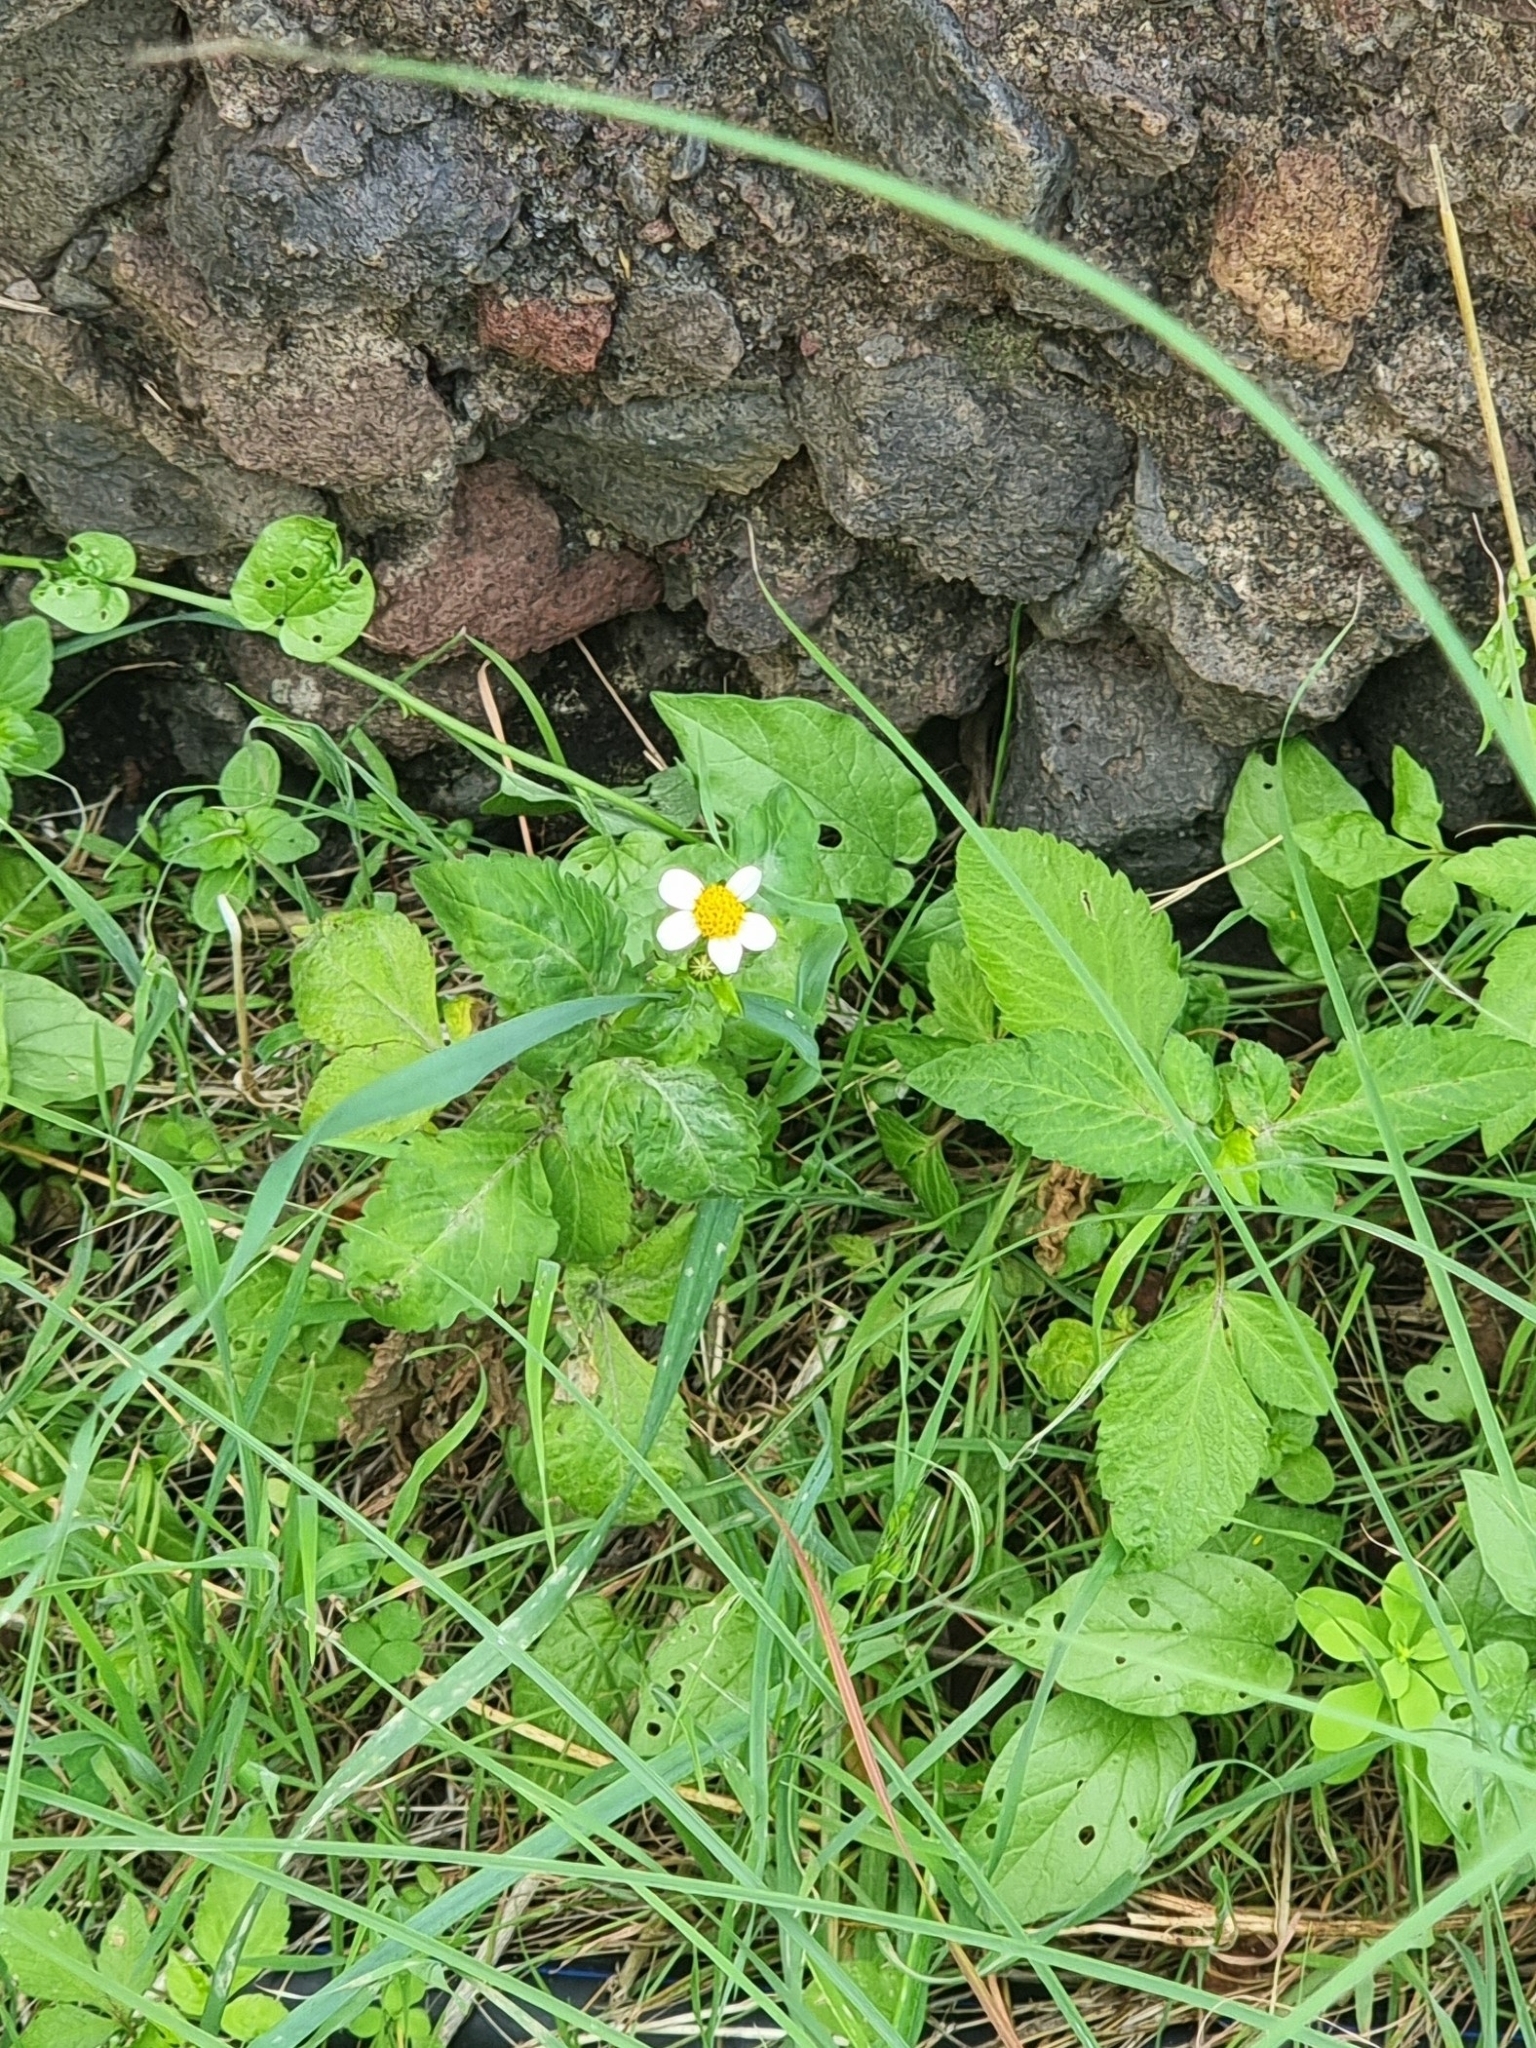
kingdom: Plantae
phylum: Tracheophyta
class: Magnoliopsida
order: Asterales
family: Asteraceae
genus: Bidens
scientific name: Bidens pilosa
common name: Black-jack
